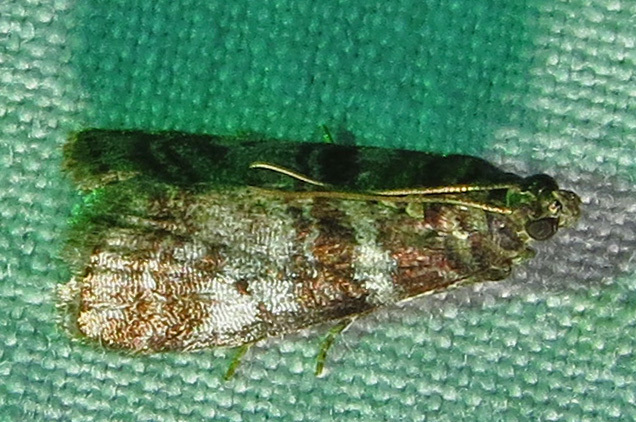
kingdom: Animalia
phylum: Arthropoda
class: Insecta
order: Lepidoptera
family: Pyralidae
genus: Sciota
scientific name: Sciota uvinella
